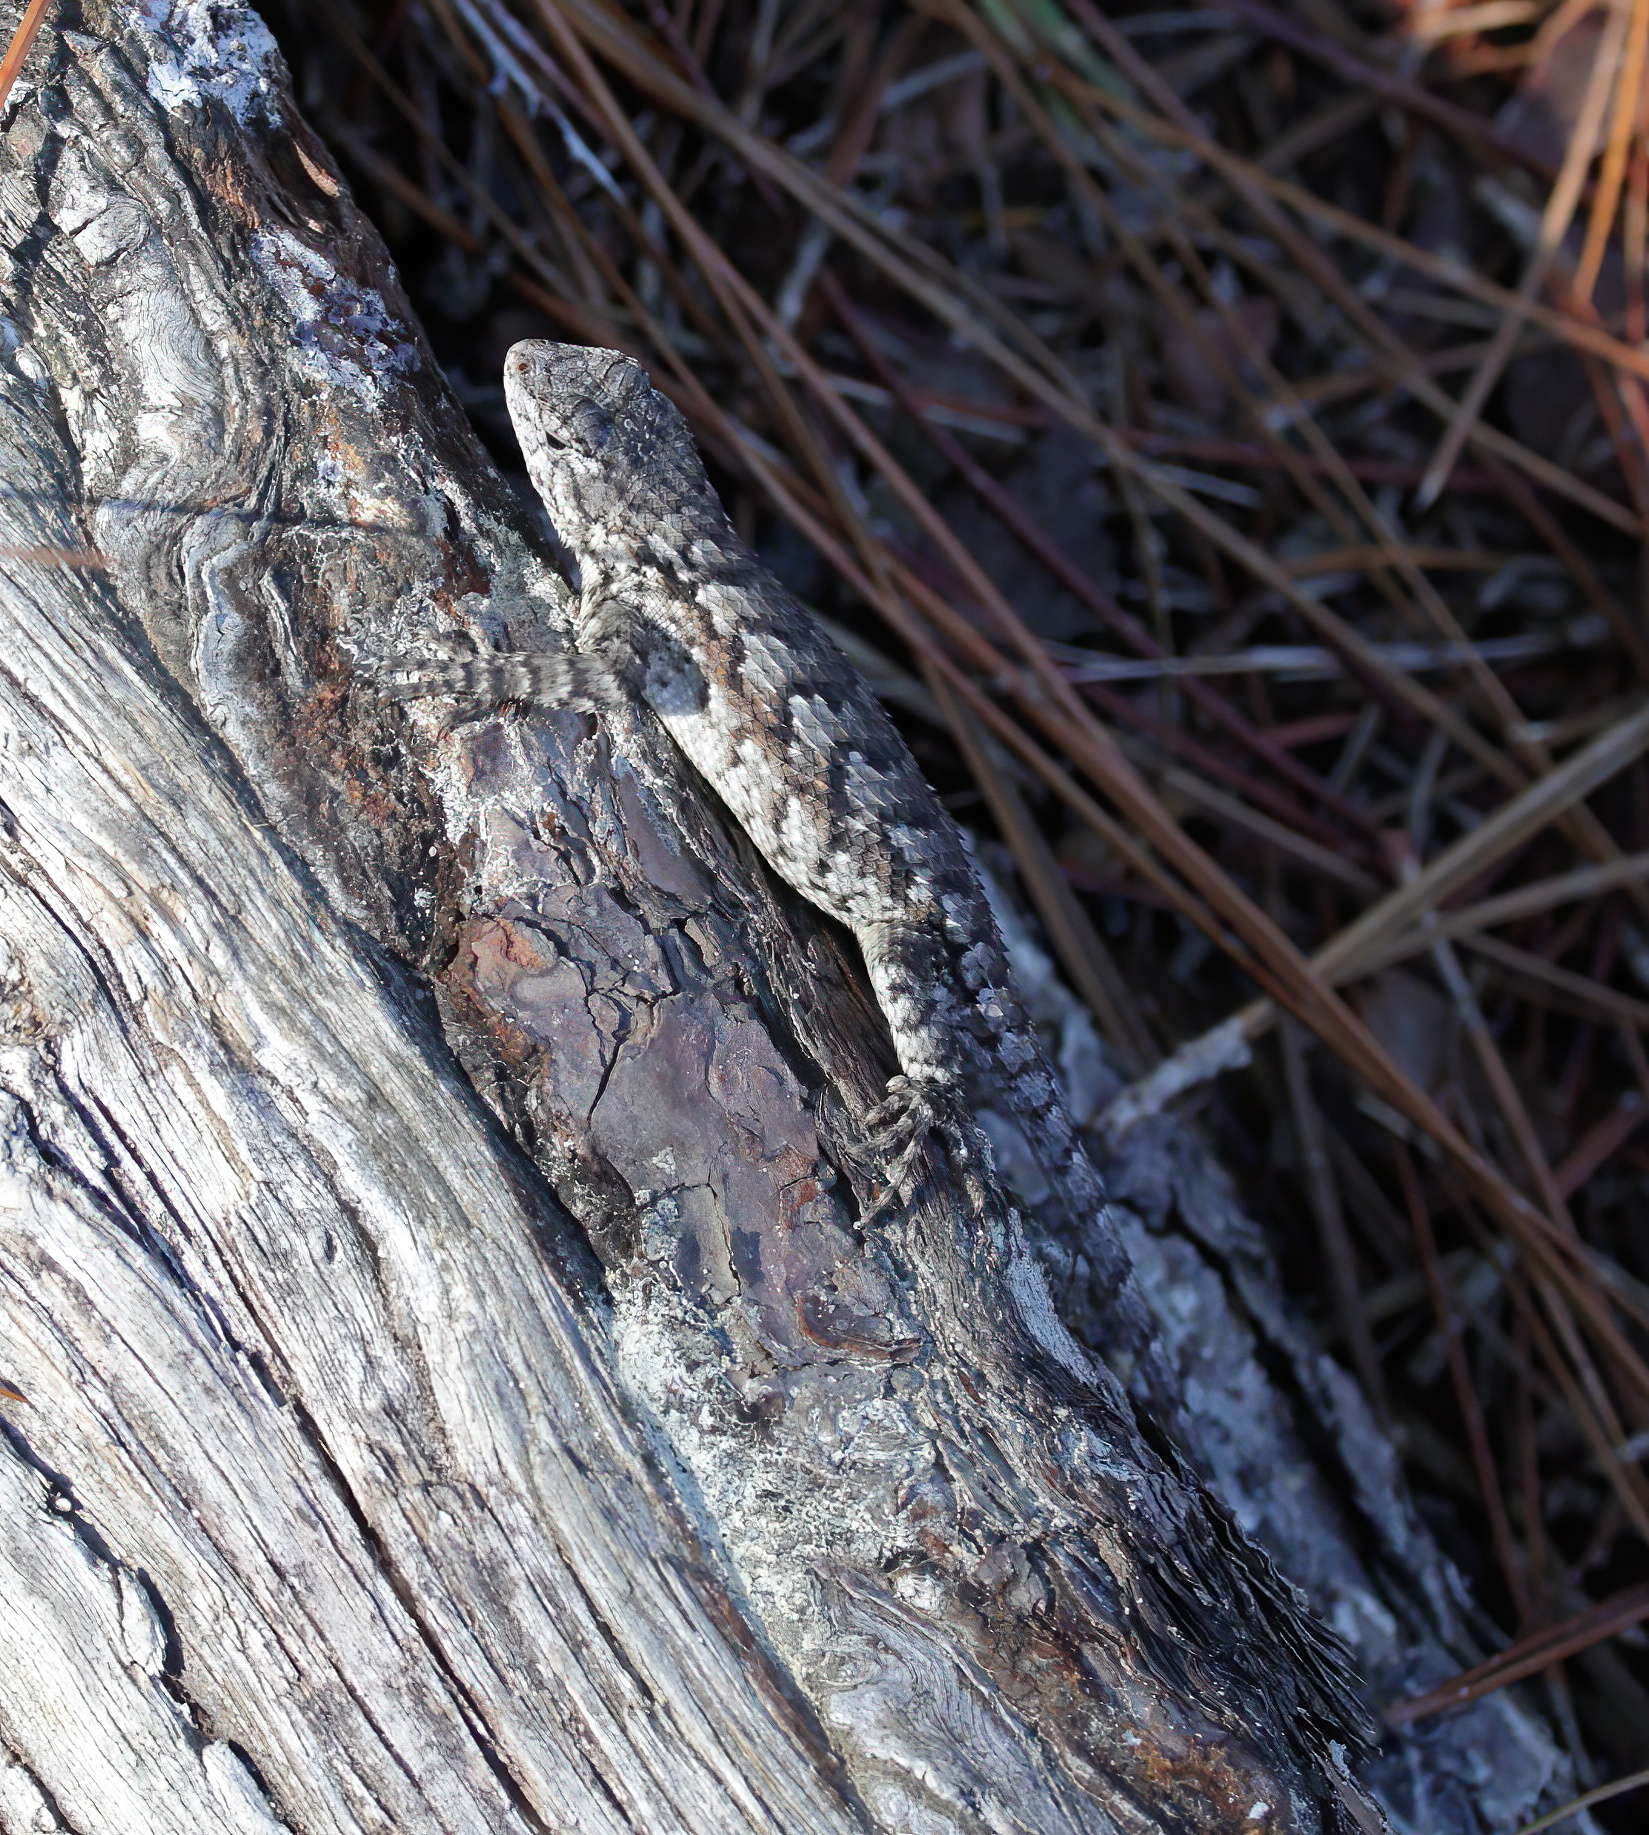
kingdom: Animalia
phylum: Chordata
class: Squamata
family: Phrynosomatidae
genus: Sceloporus
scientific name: Sceloporus undulatus
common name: Eastern fence lizard
